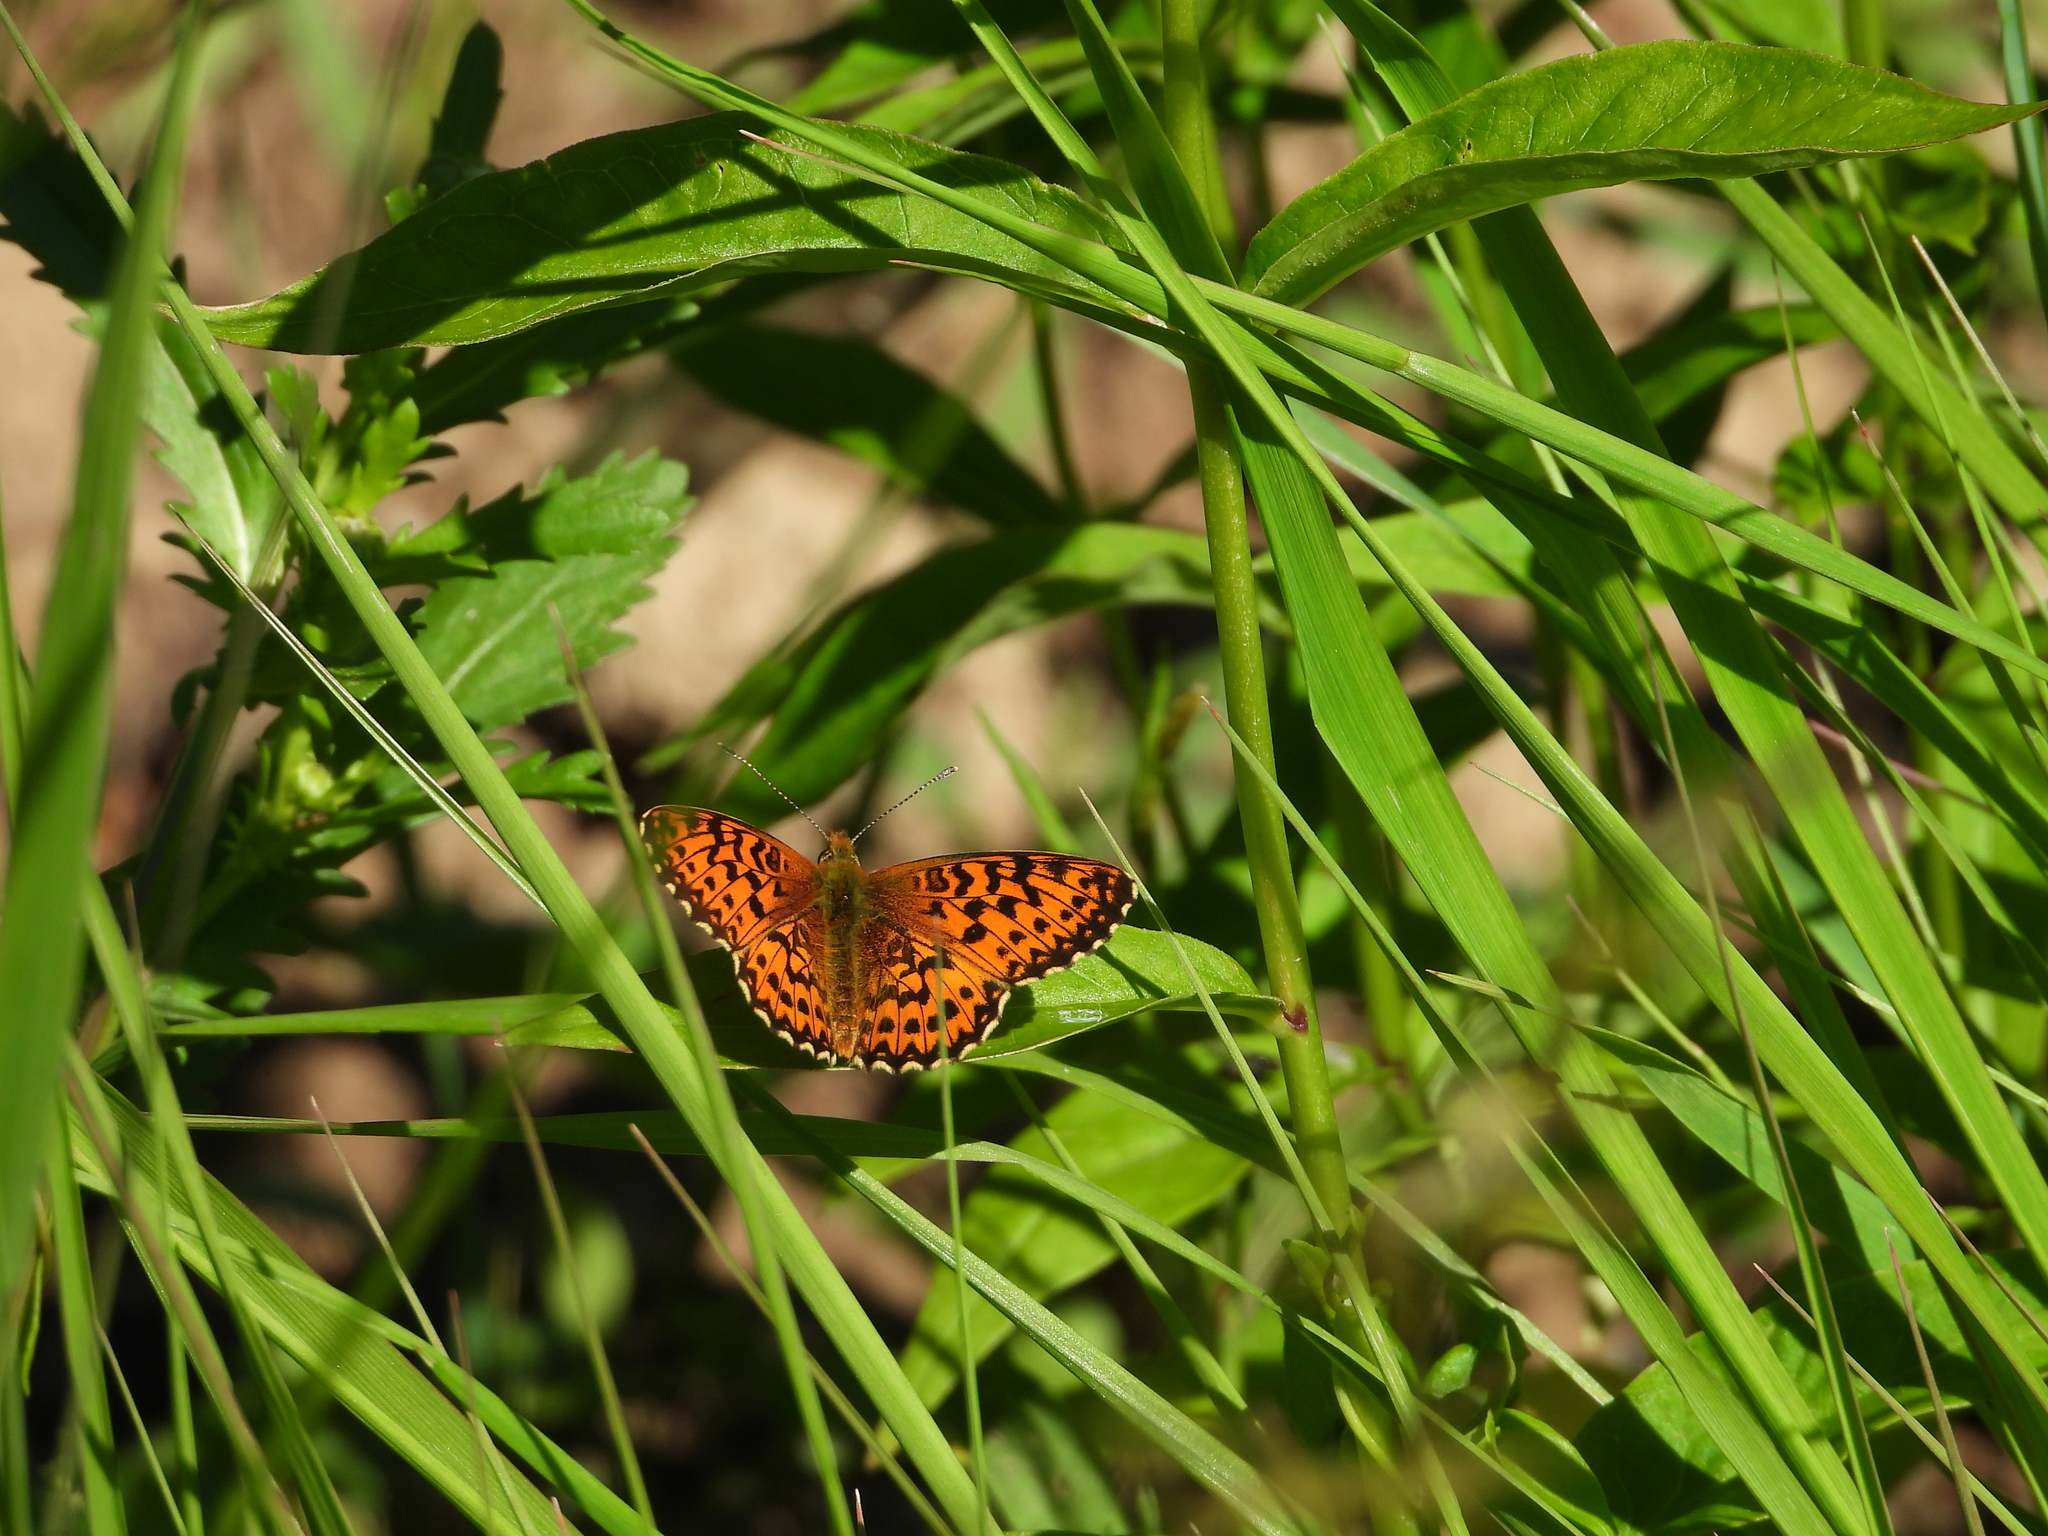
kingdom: Animalia
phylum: Arthropoda
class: Insecta
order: Lepidoptera
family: Nymphalidae
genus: Boloria
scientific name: Boloria titania
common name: Titania's fritillary
